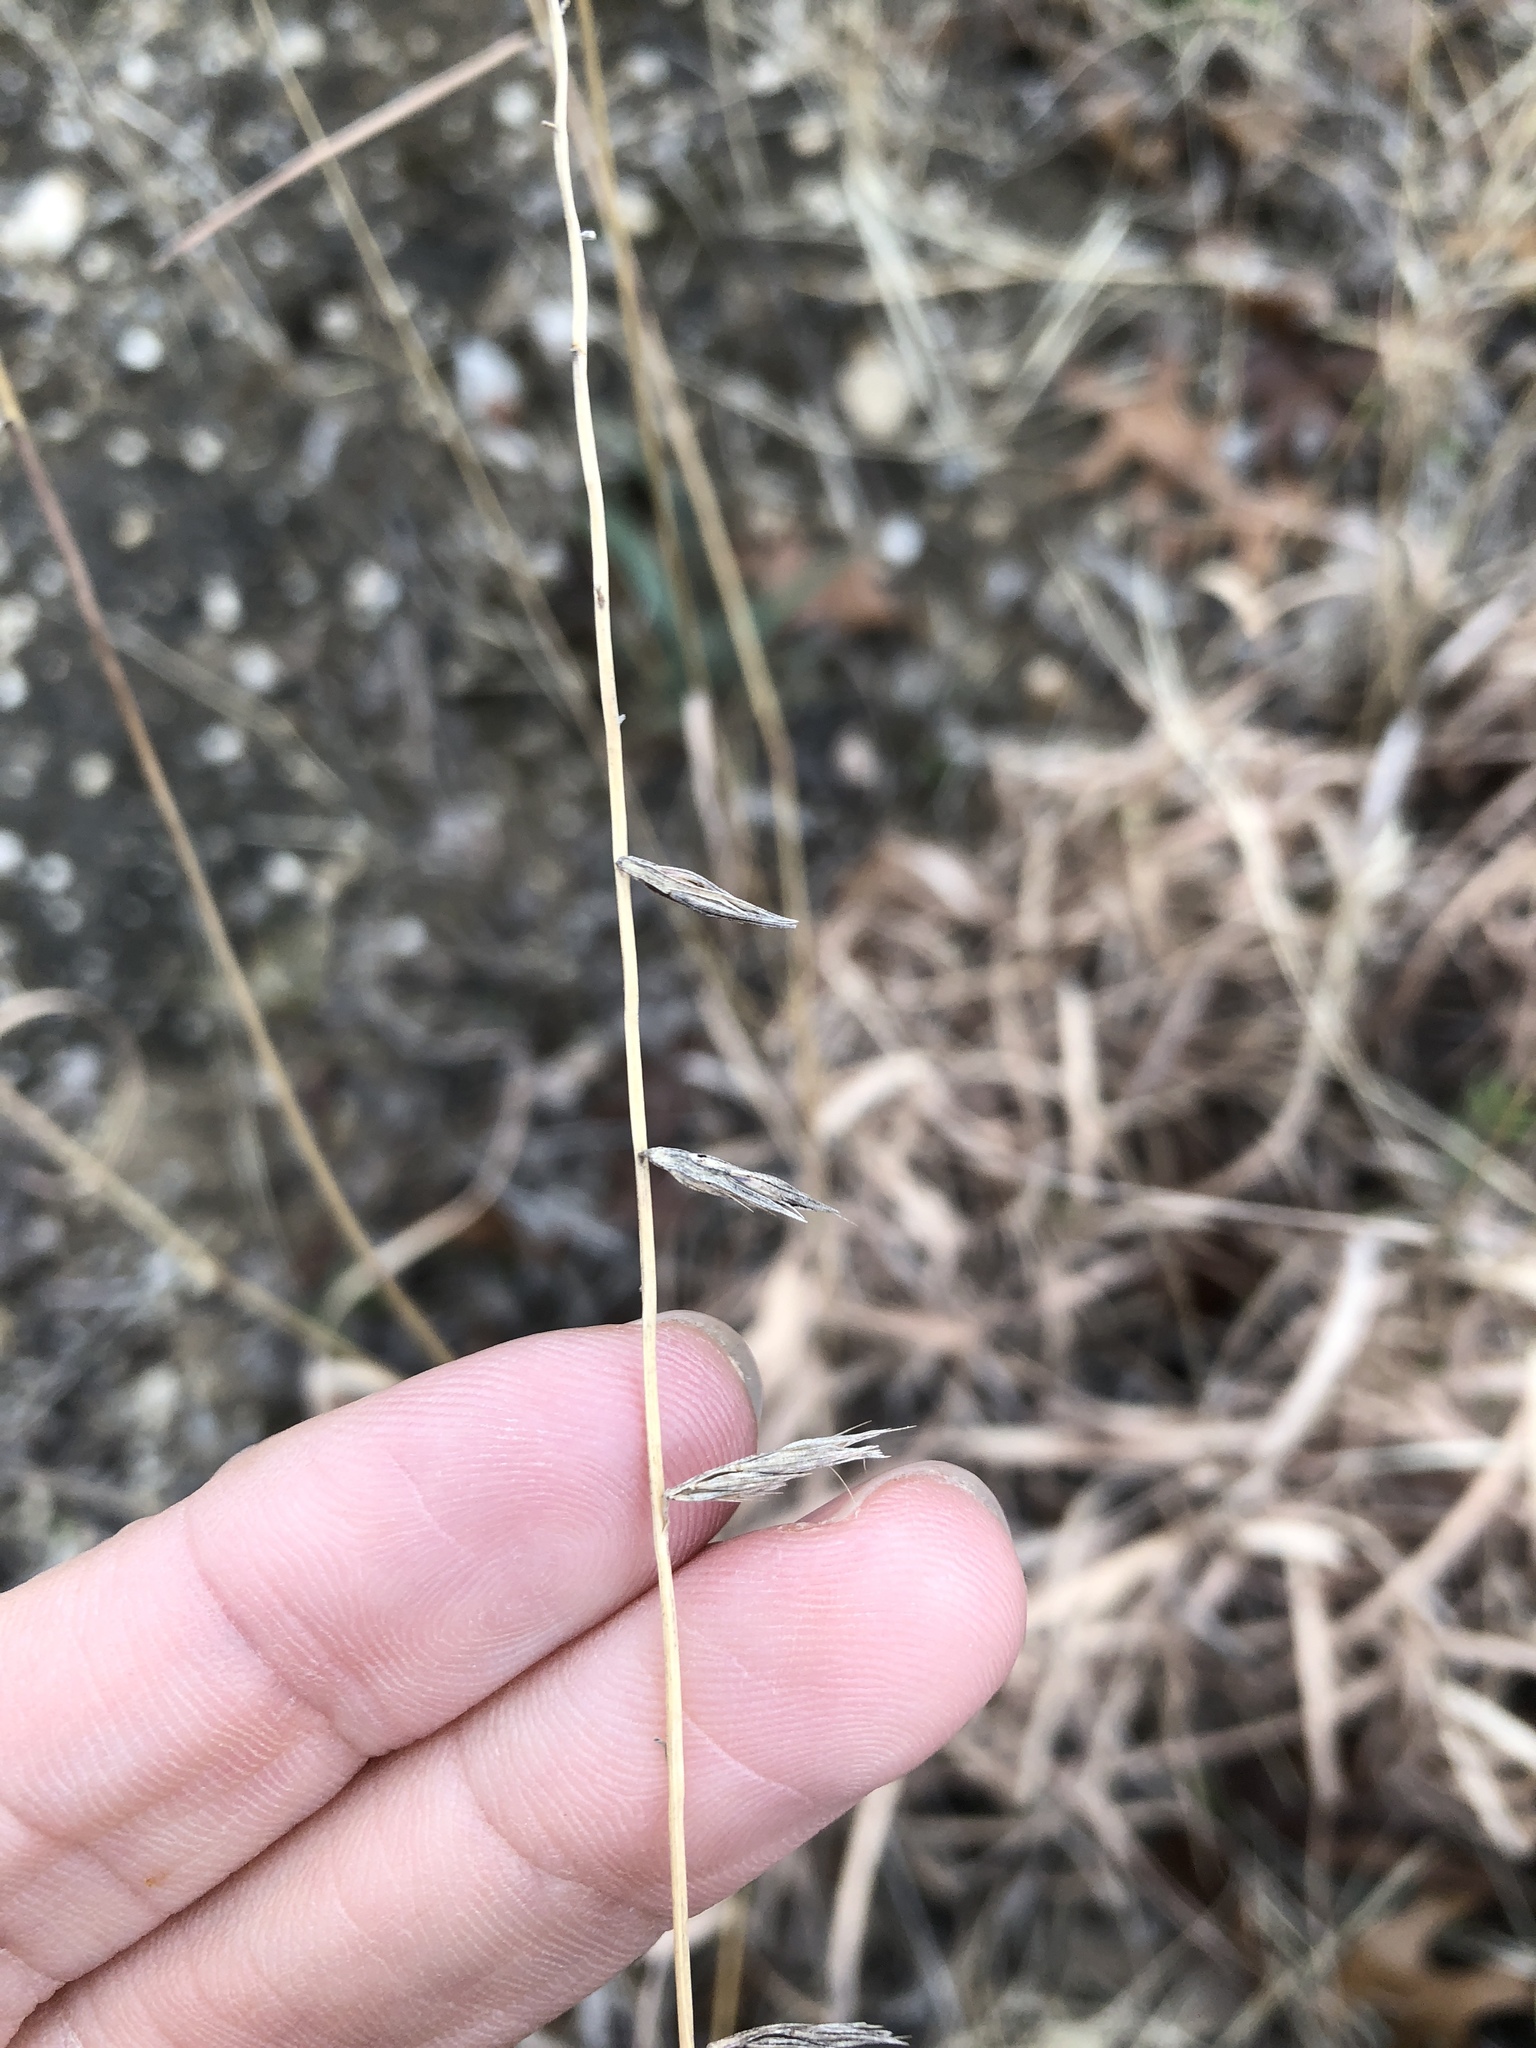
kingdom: Plantae
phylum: Tracheophyta
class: Liliopsida
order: Poales
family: Poaceae
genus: Bouteloua
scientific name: Bouteloua curtipendula
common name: Side-oats grama
